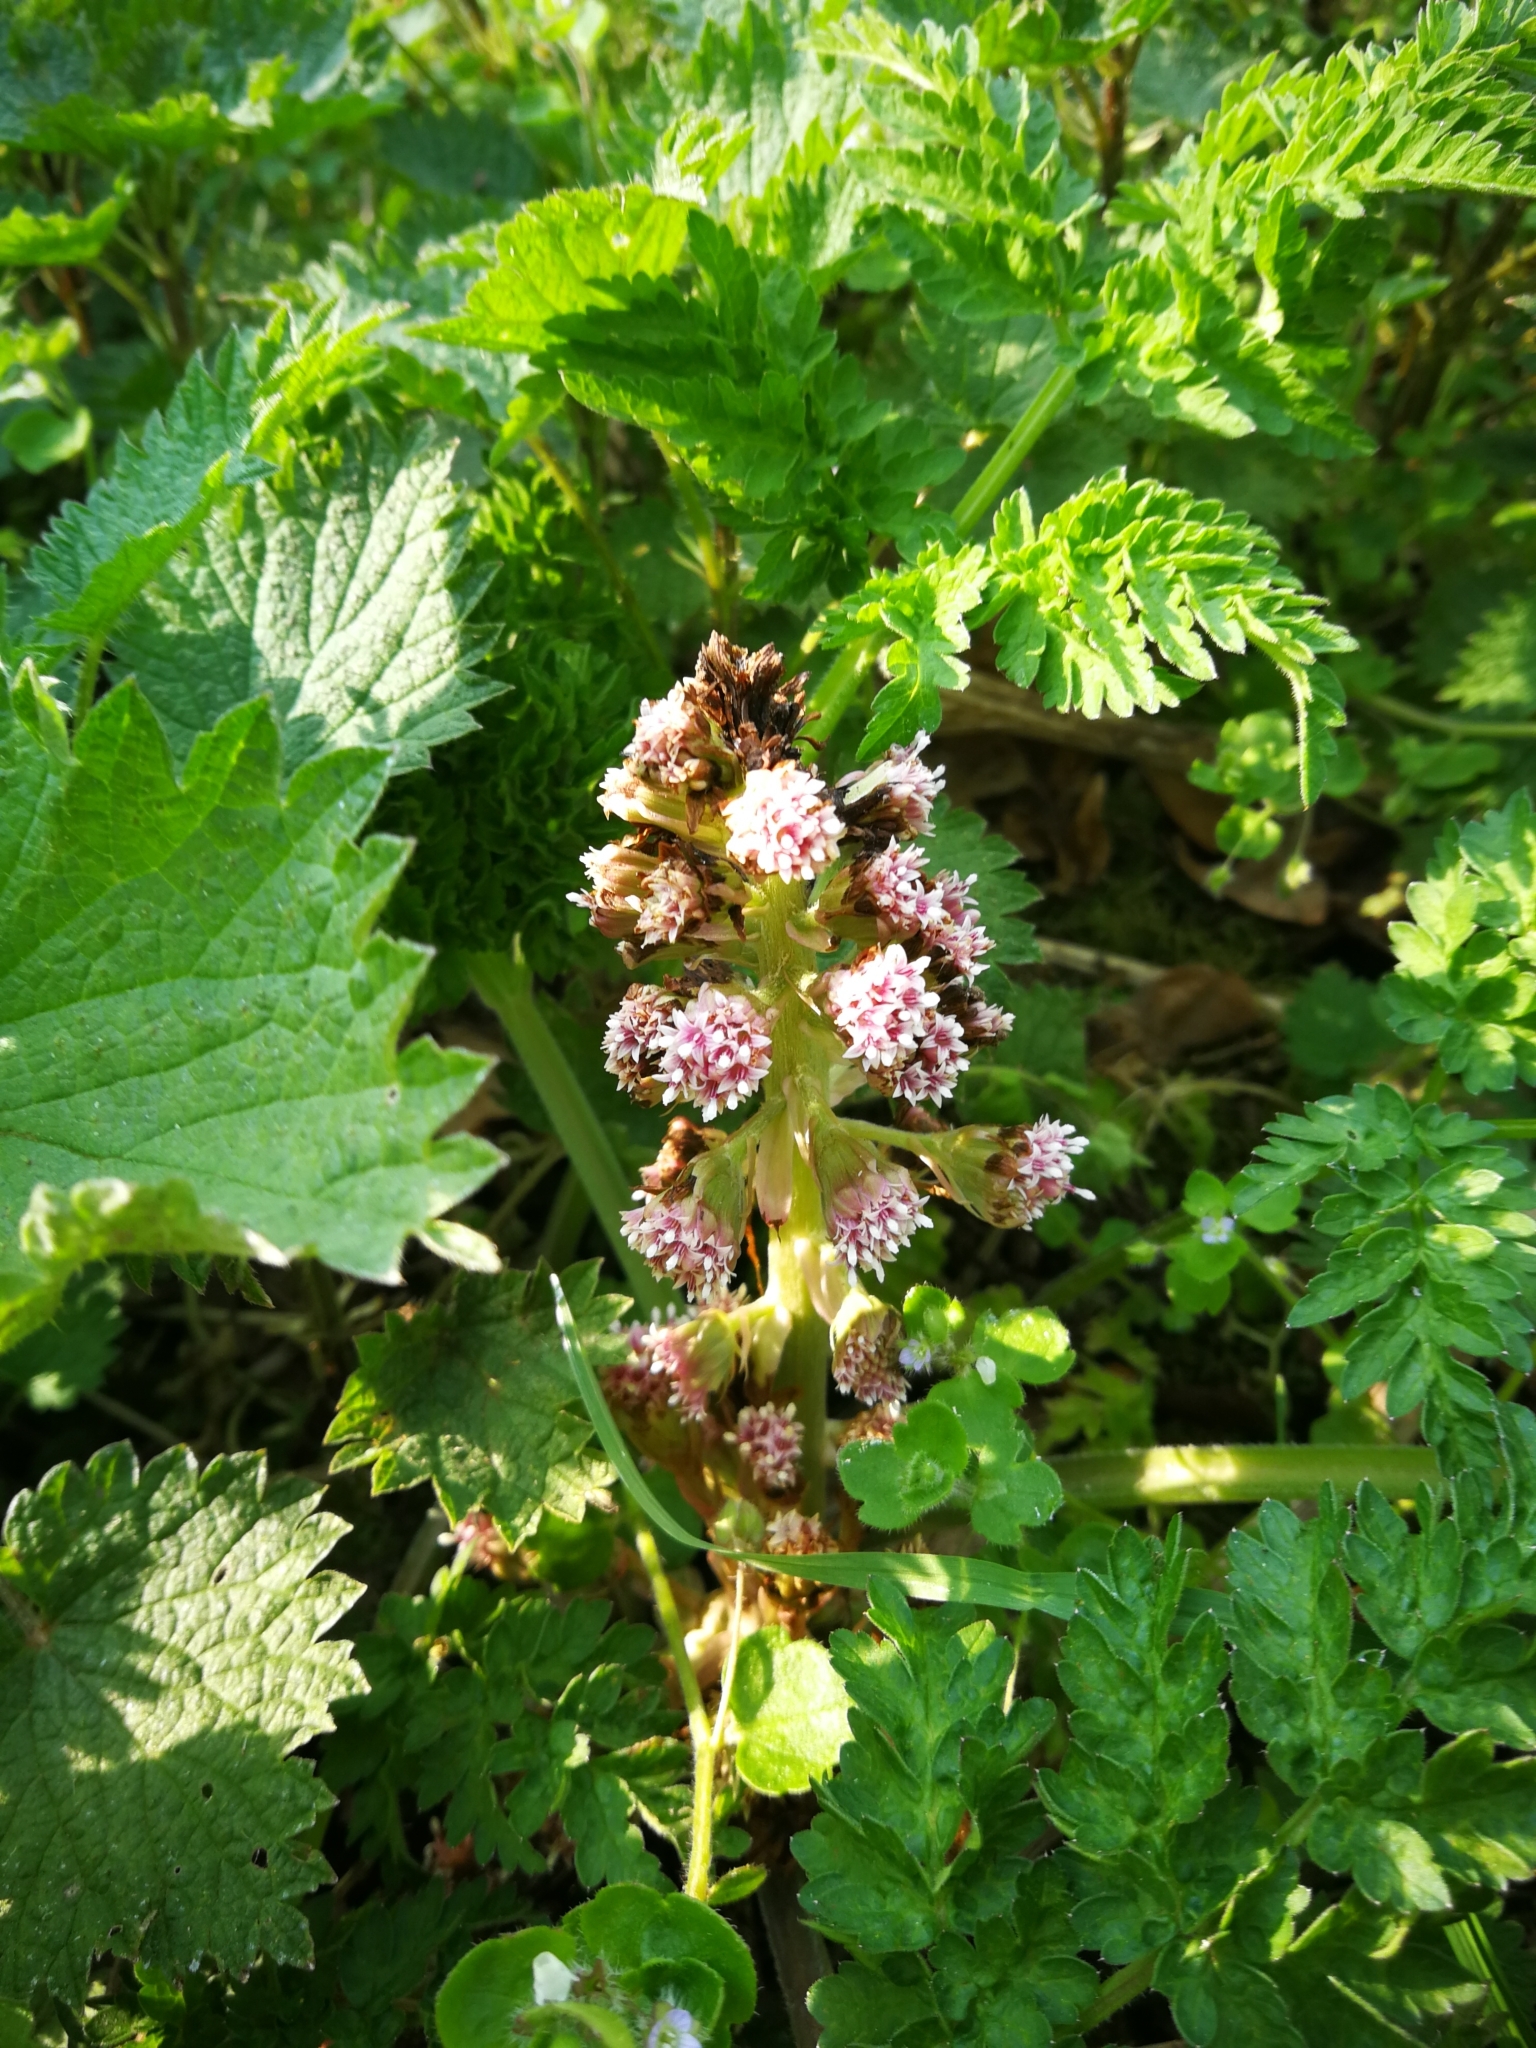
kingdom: Plantae
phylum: Tracheophyta
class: Magnoliopsida
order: Asterales
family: Asteraceae
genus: Petasites
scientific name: Petasites hybridus
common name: Butterbur
